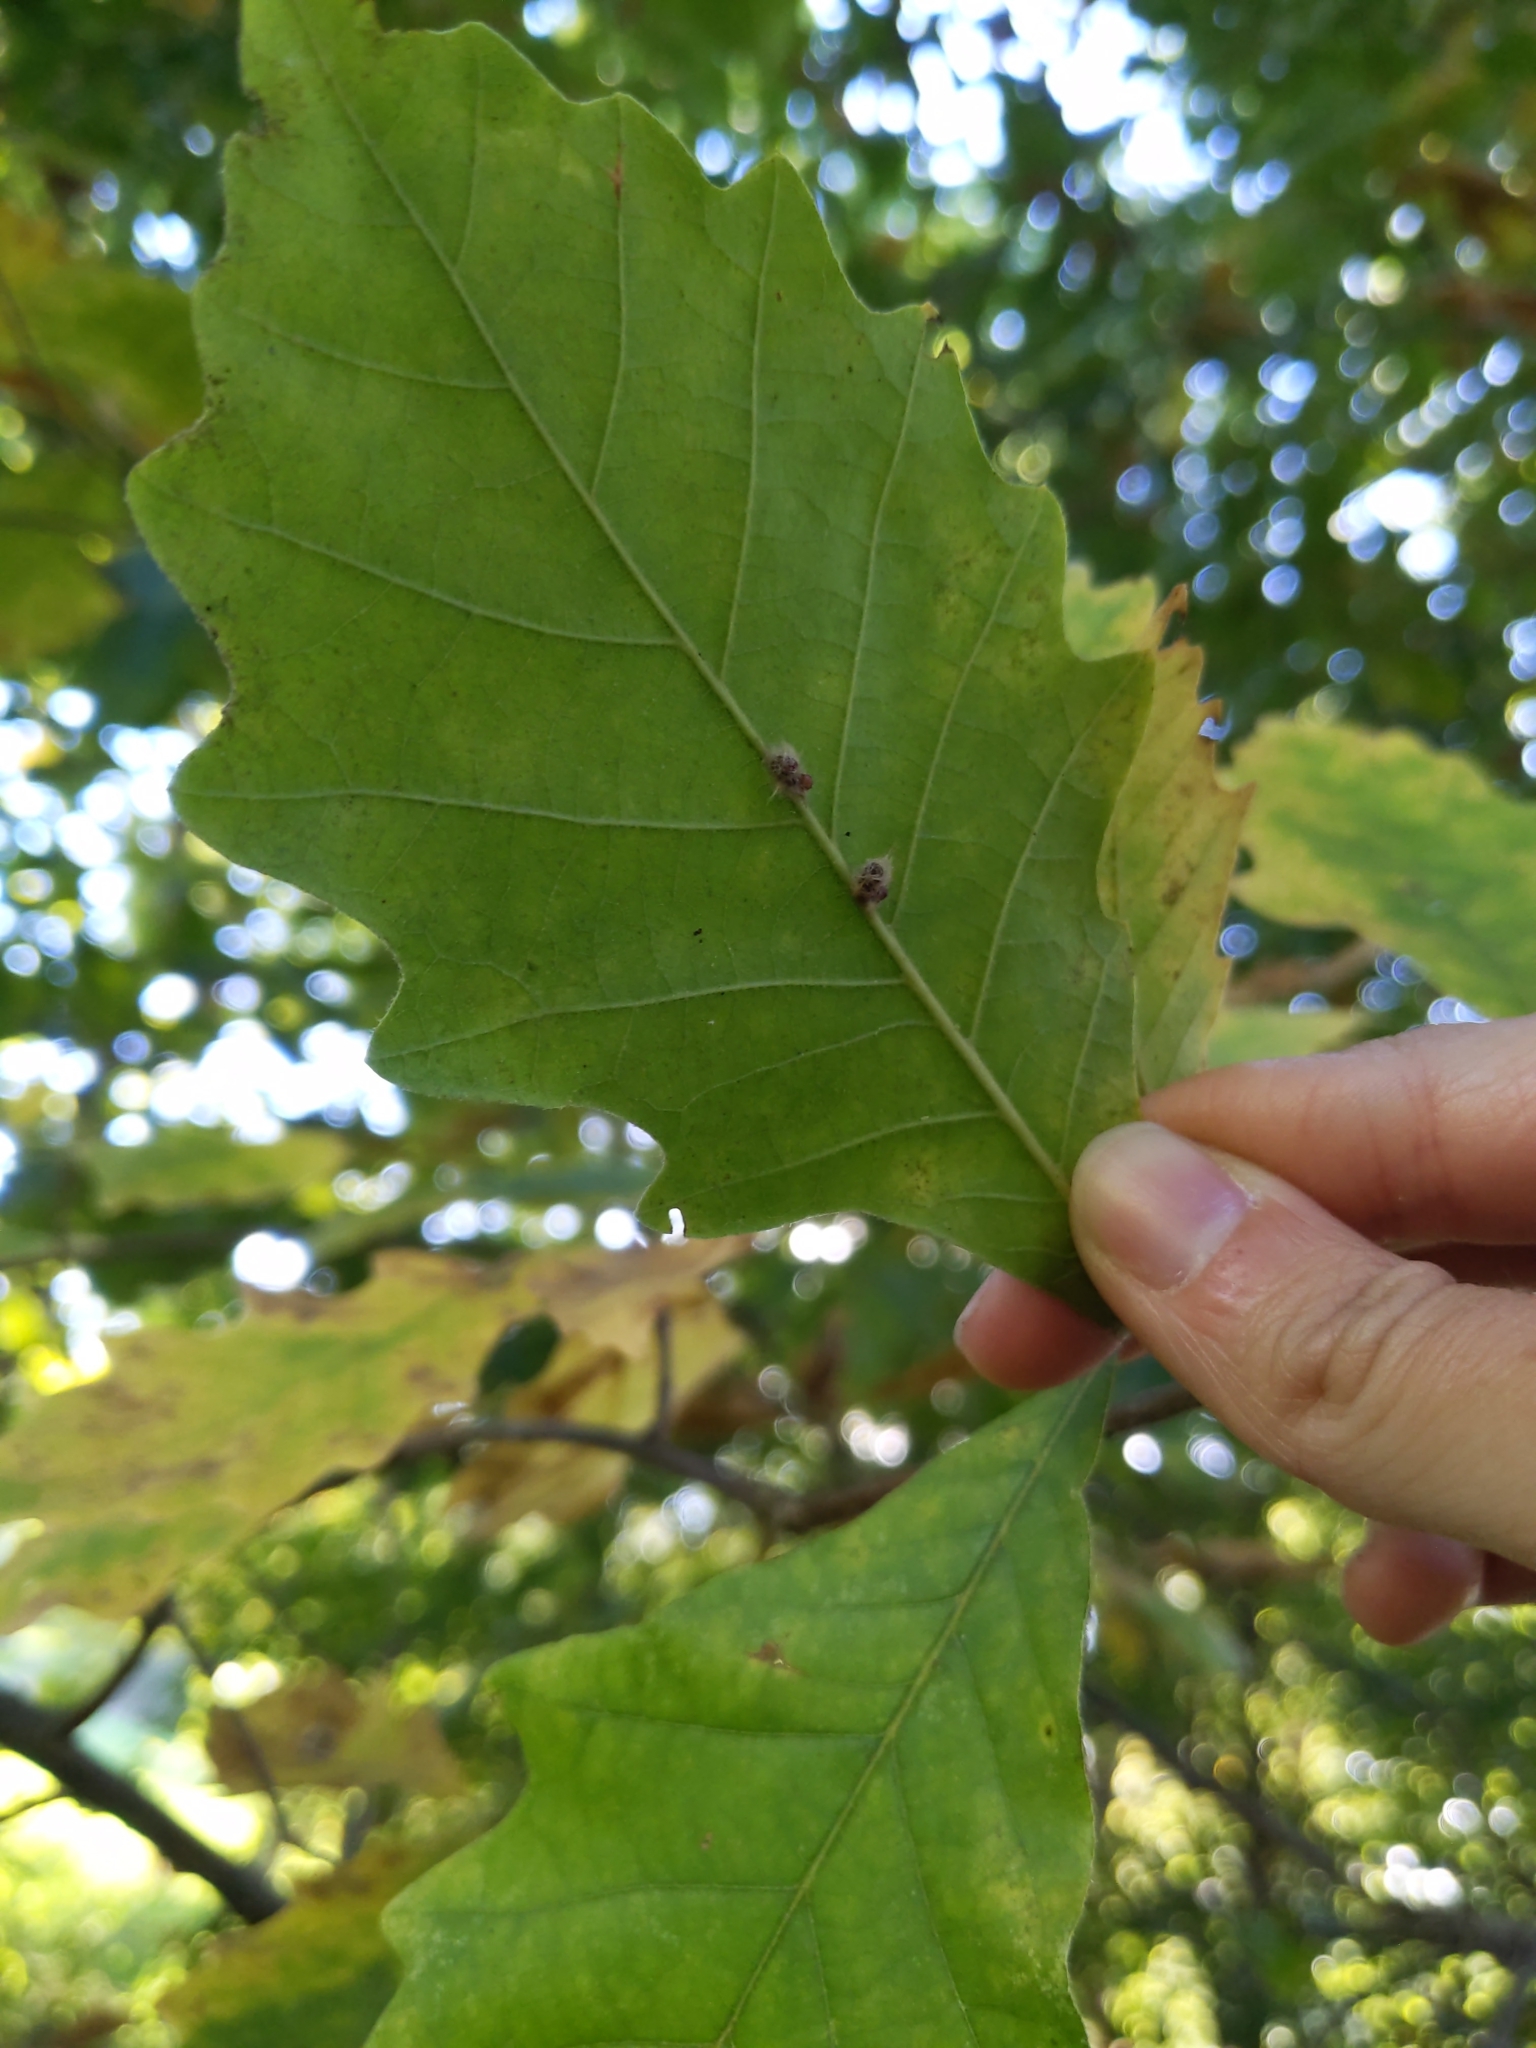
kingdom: Animalia
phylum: Arthropoda
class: Insecta
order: Hymenoptera
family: Cynipidae
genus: Andricus
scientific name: Andricus Druon ignotum
